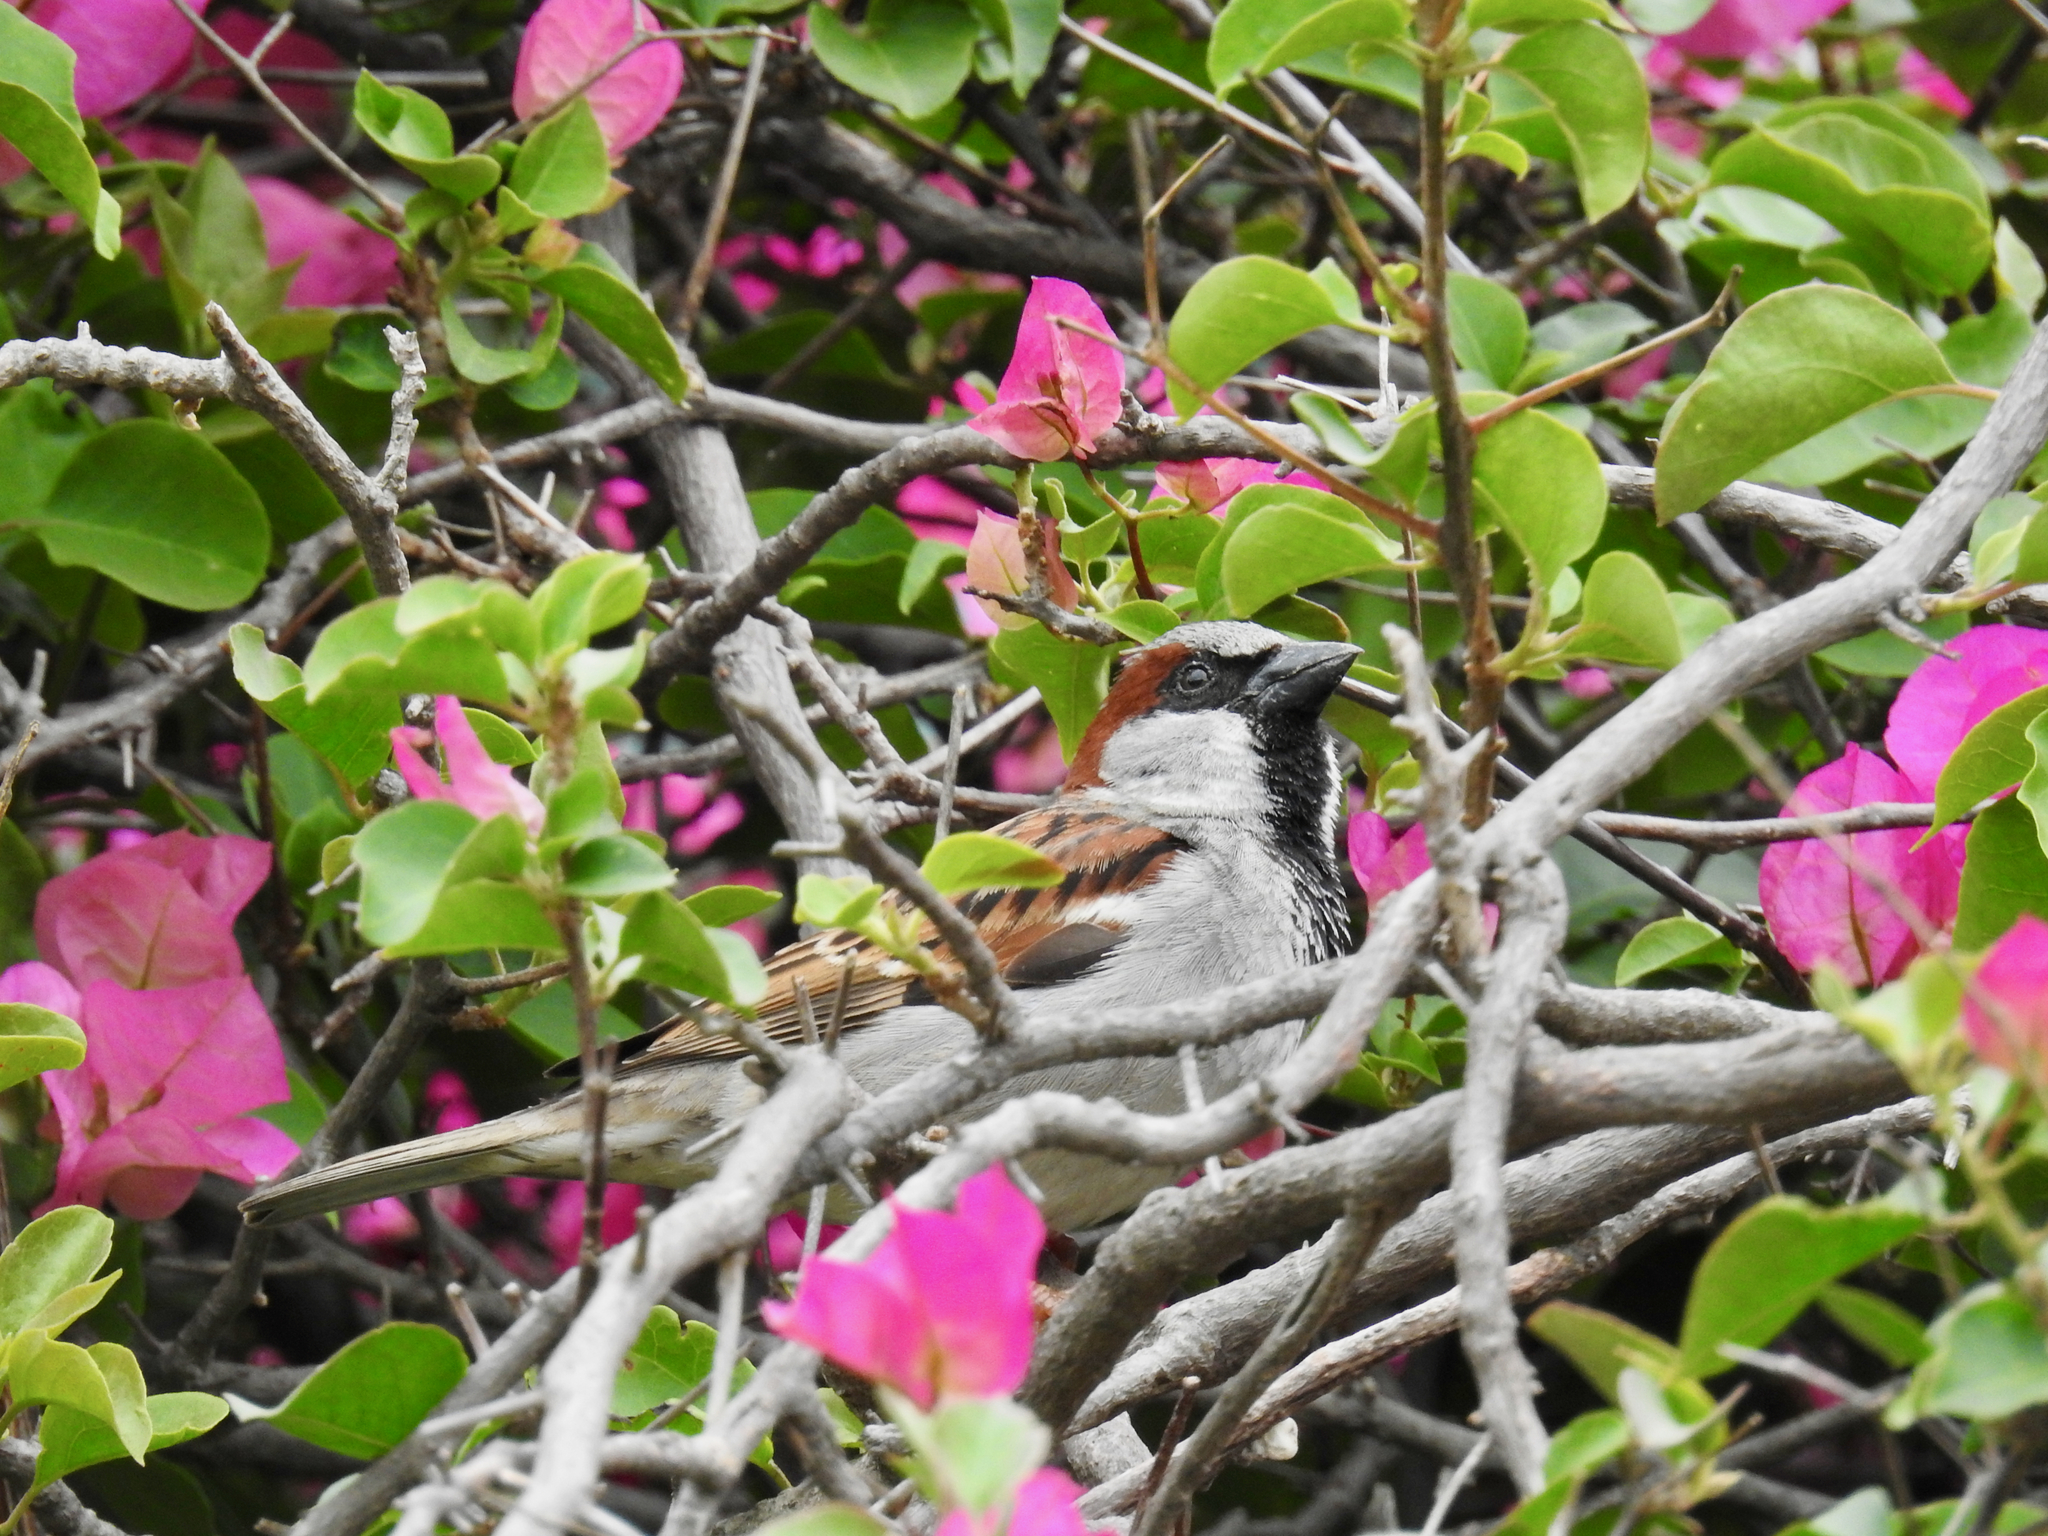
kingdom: Animalia
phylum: Chordata
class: Aves
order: Passeriformes
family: Passeridae
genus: Passer
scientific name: Passer domesticus
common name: House sparrow
